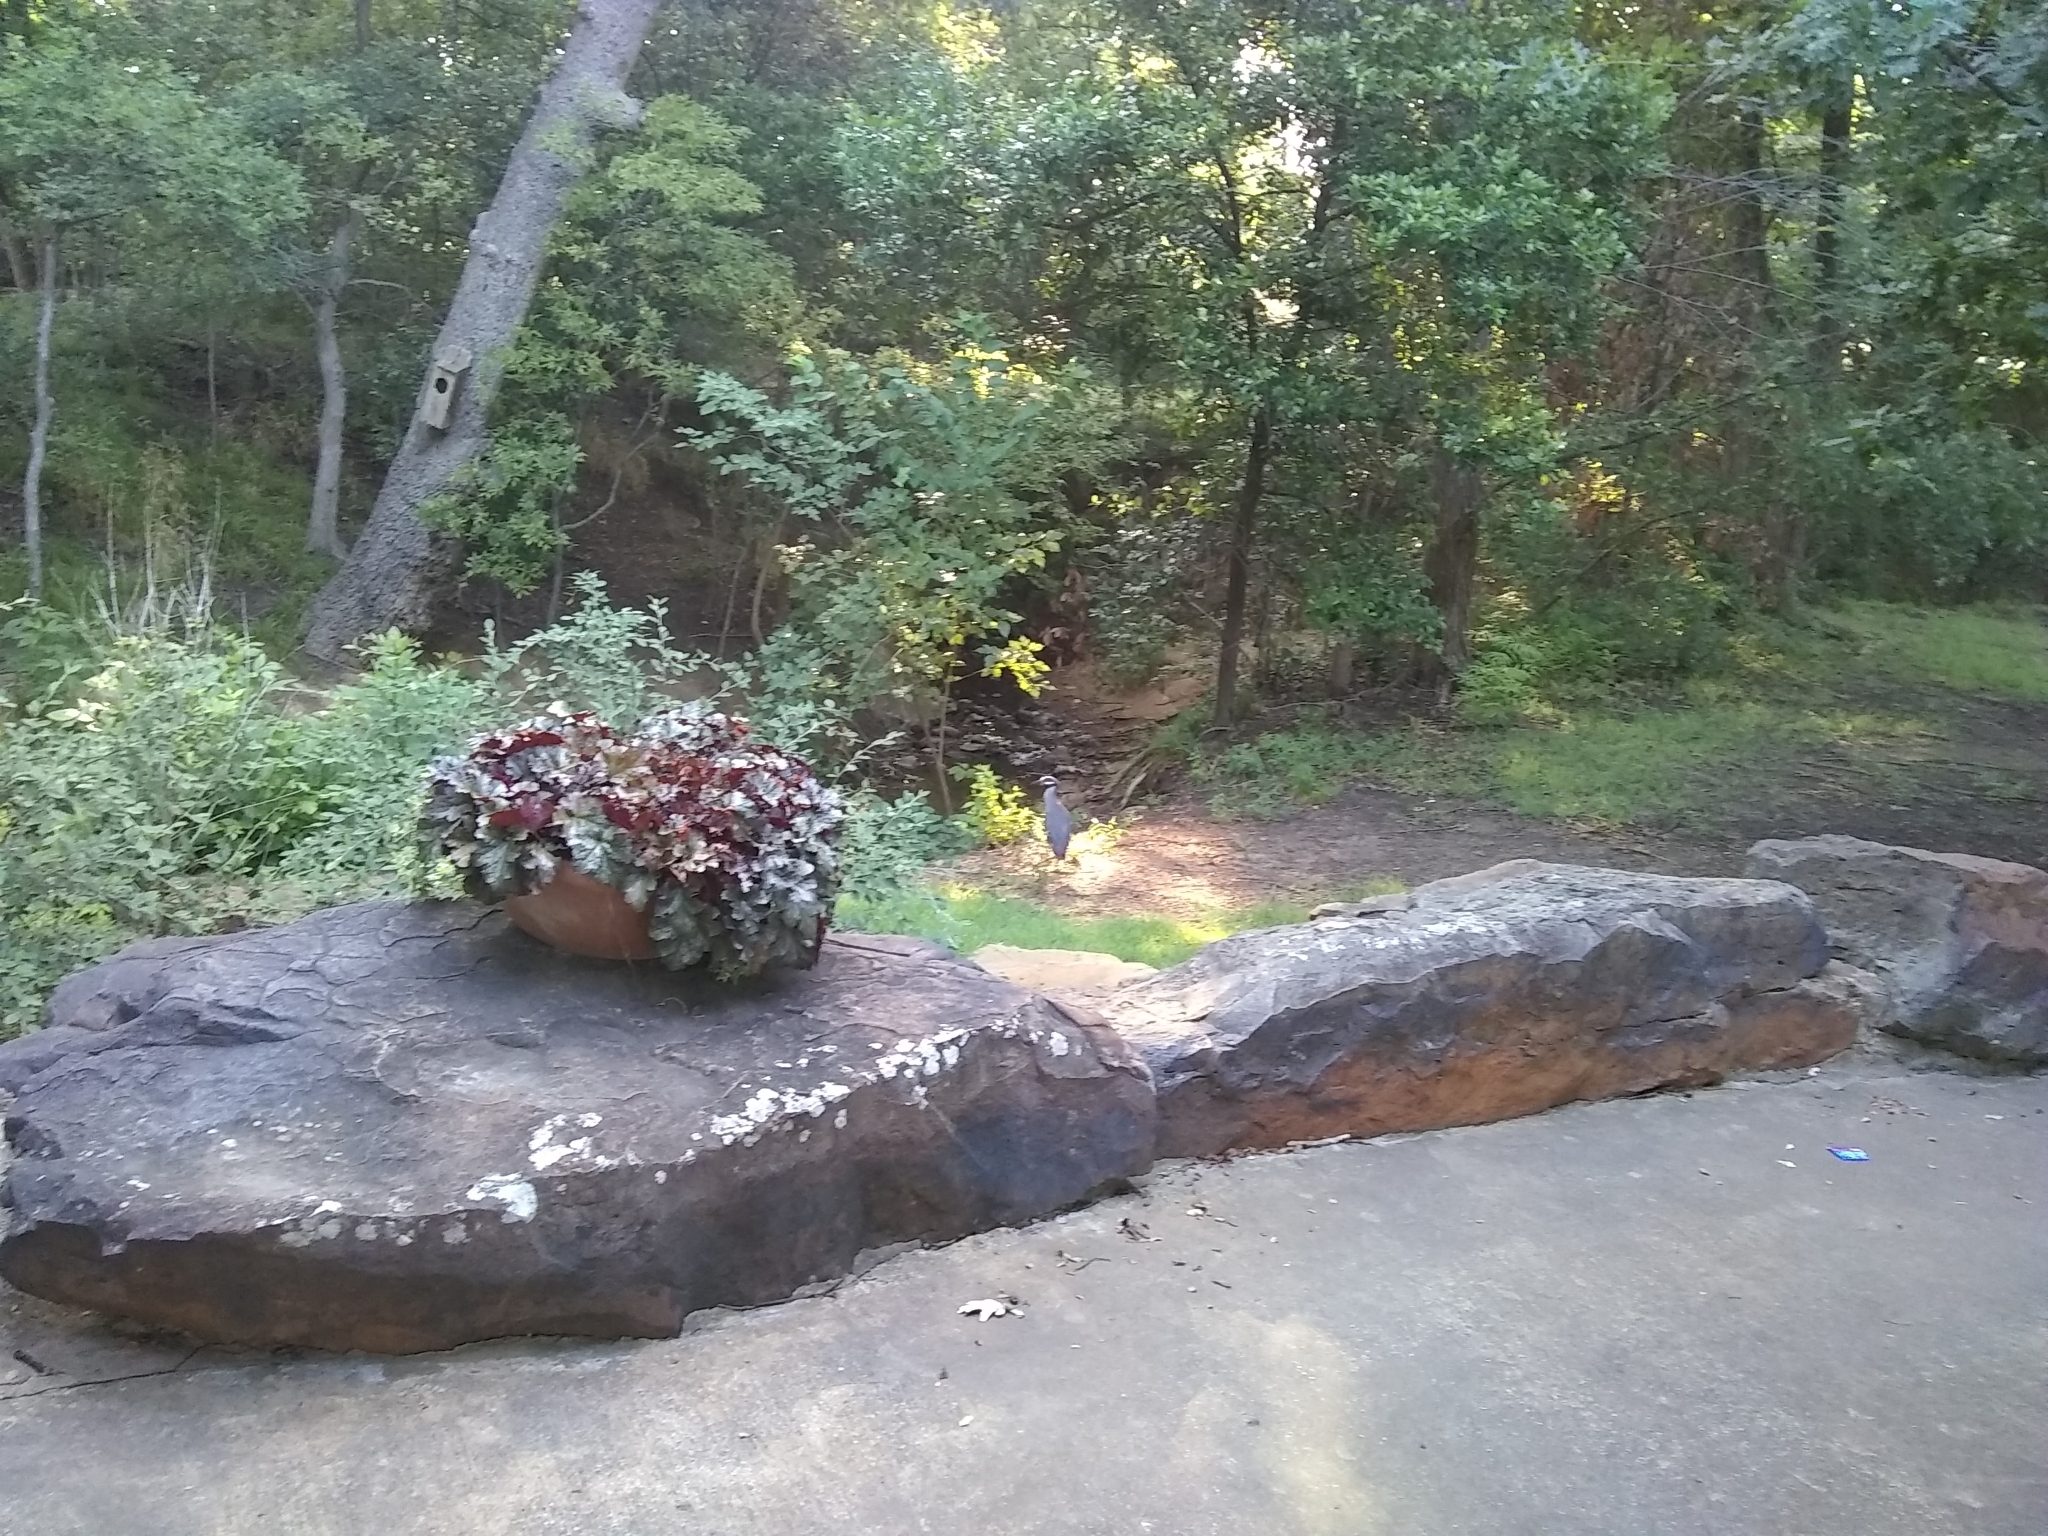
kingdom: Animalia
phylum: Chordata
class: Aves
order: Pelecaniformes
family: Ardeidae
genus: Nyctanassa
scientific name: Nyctanassa violacea
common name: Yellow-crowned night heron
